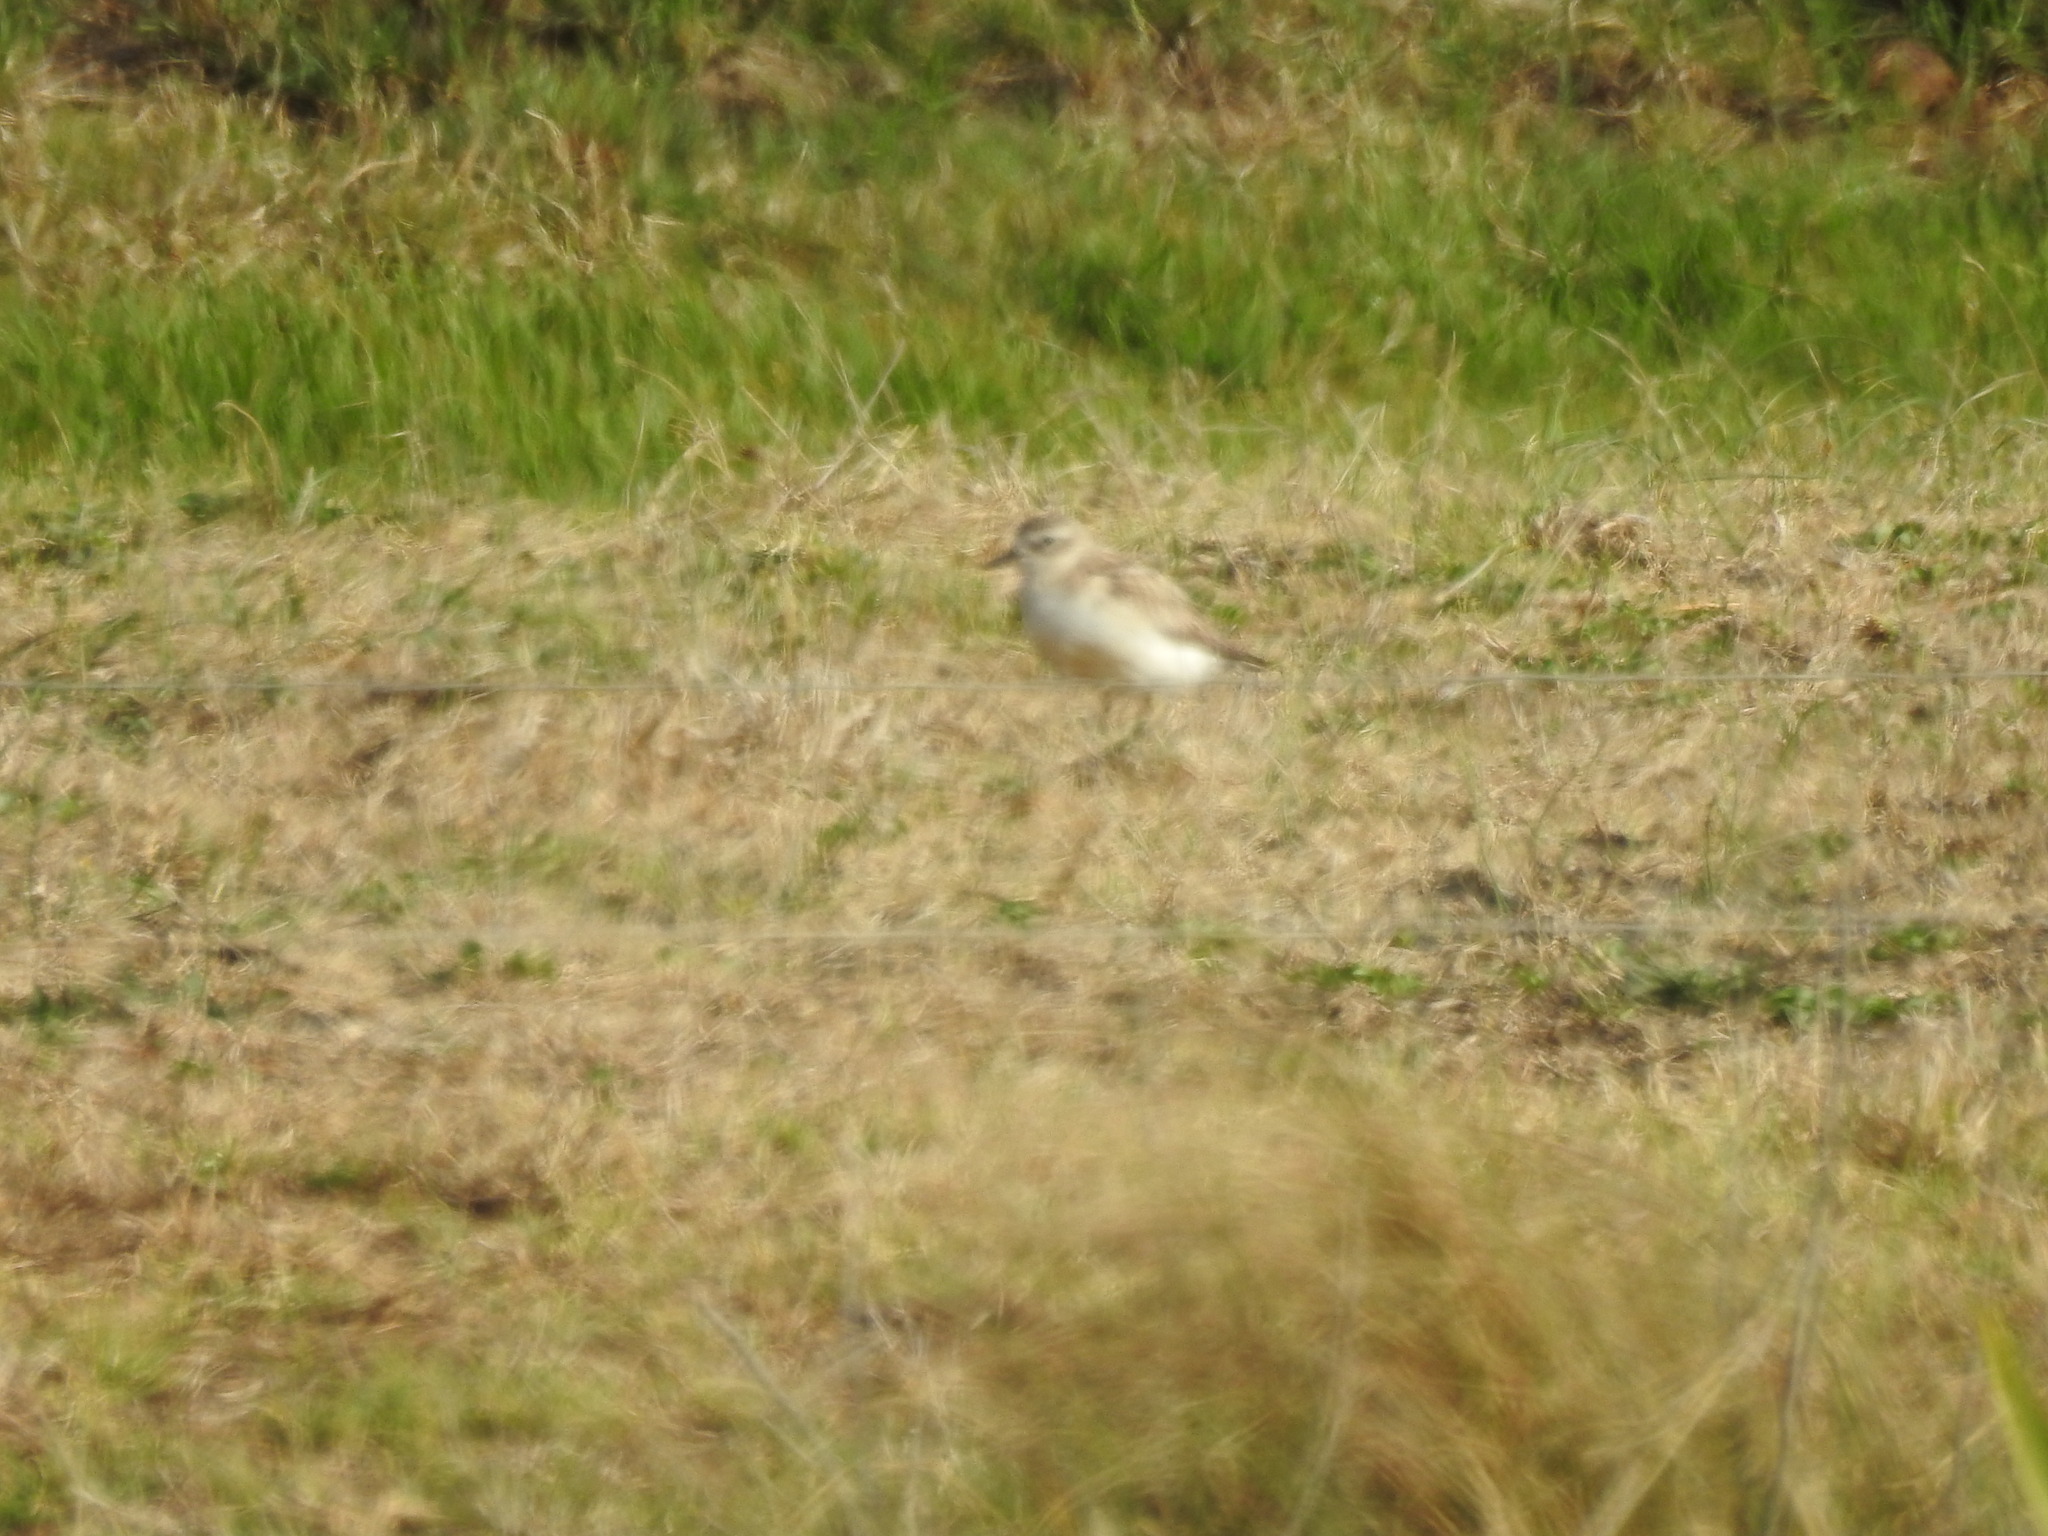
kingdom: Animalia
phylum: Chordata
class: Aves
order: Charadriiformes
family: Charadriidae
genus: Anarhynchus
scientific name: Anarhynchus
